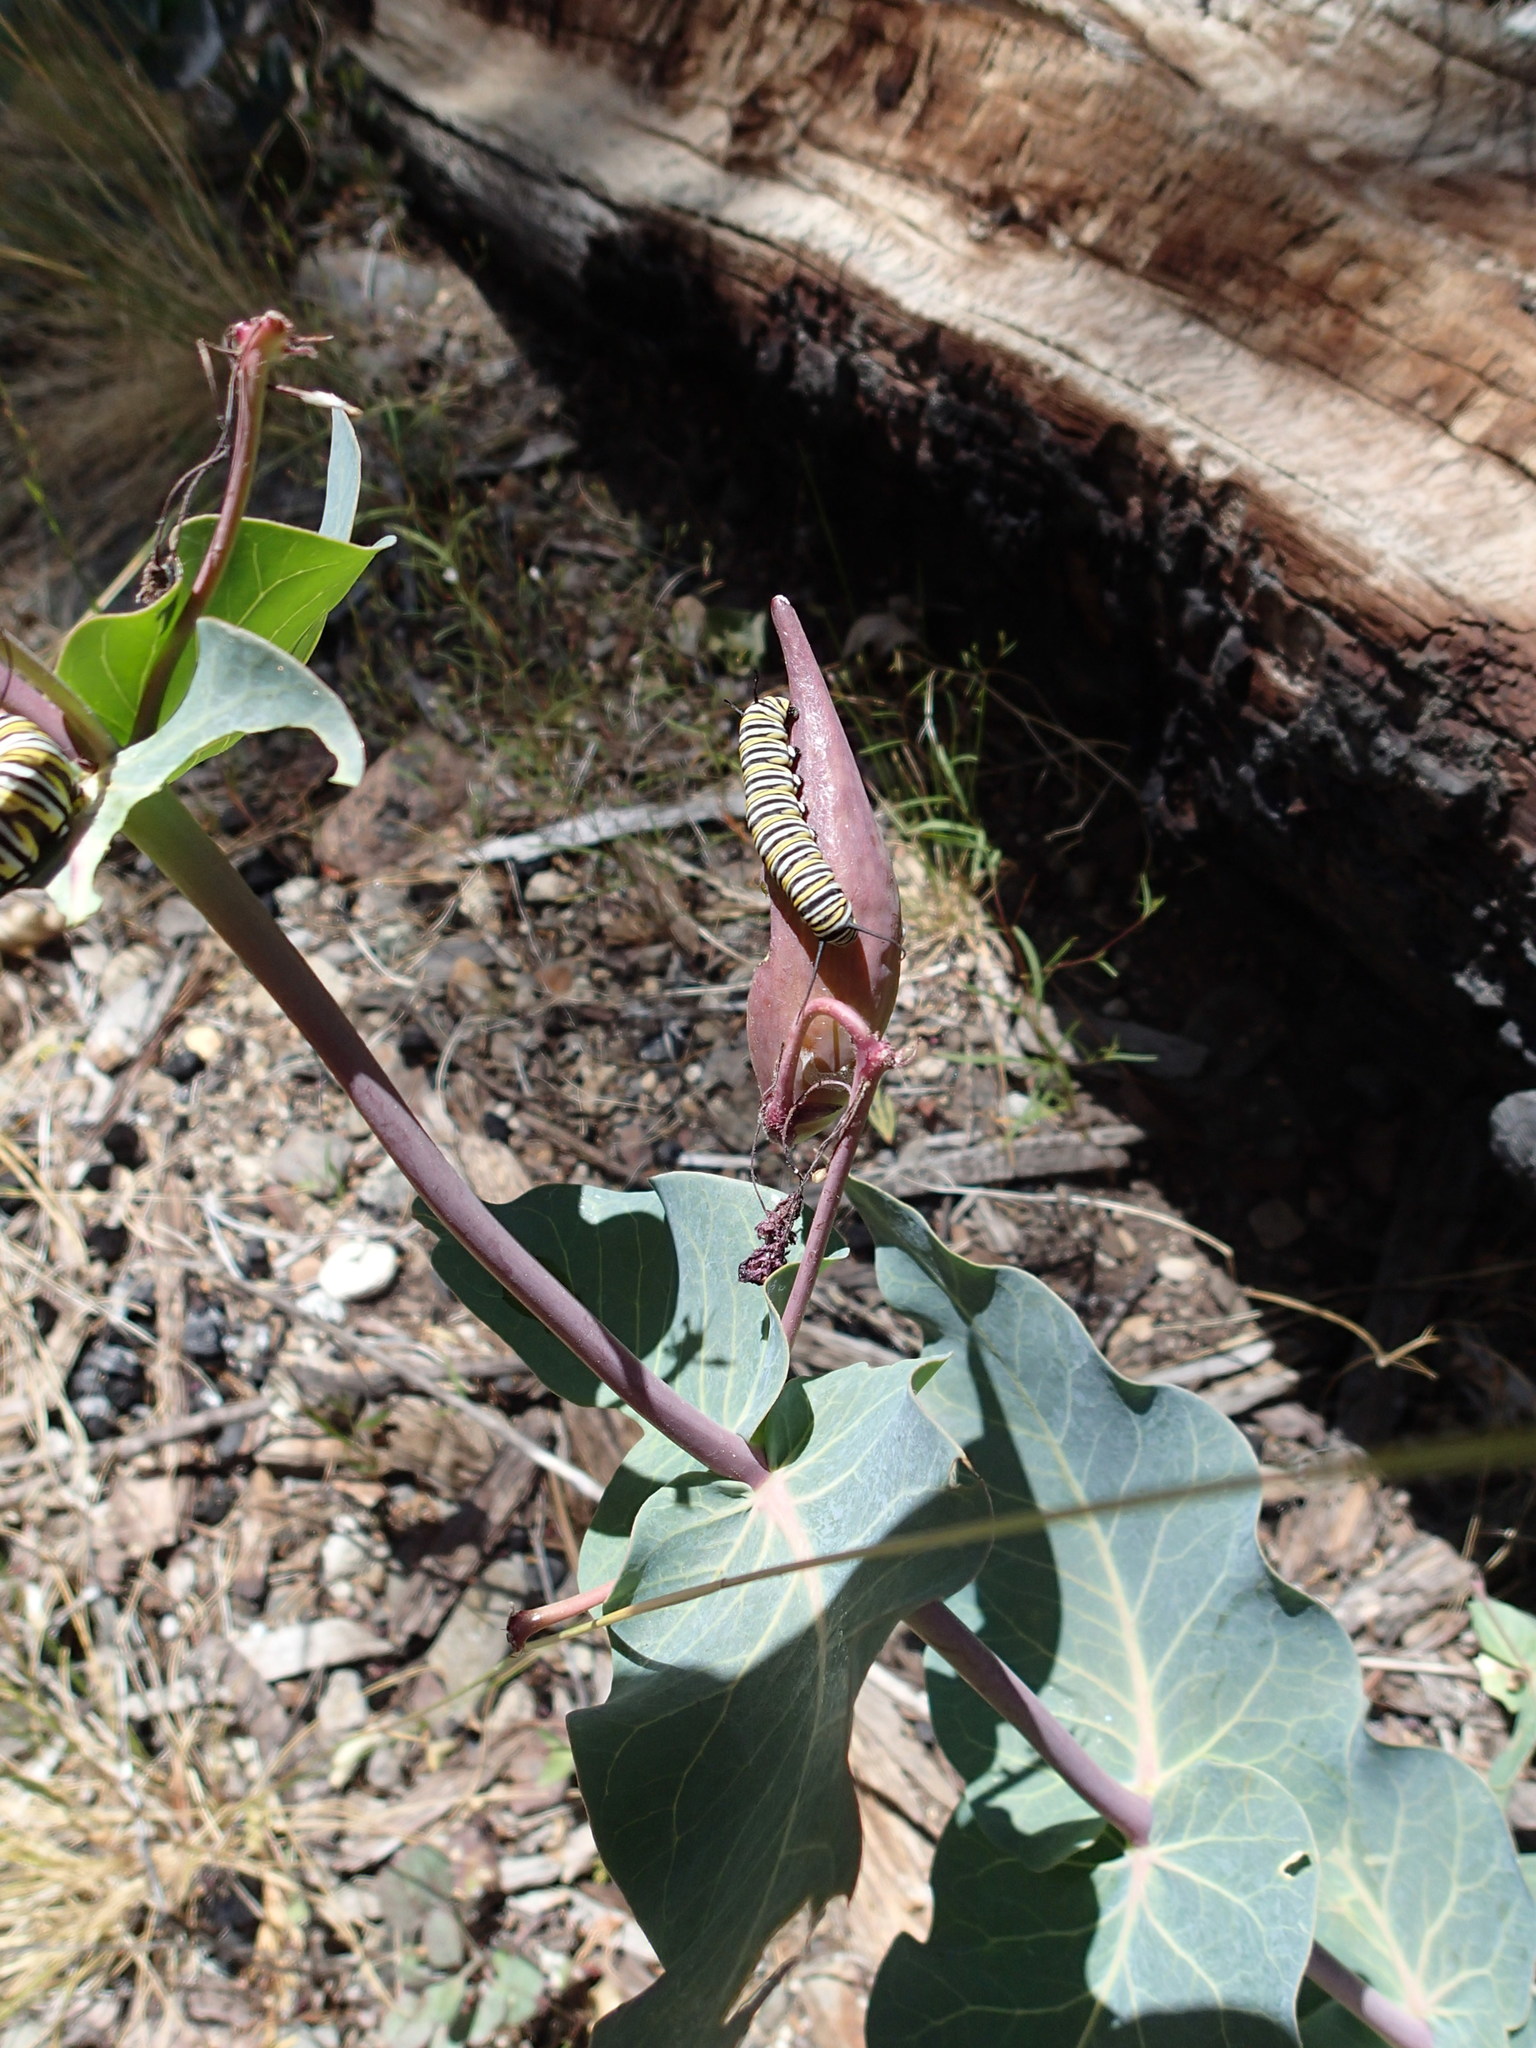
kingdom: Plantae
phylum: Tracheophyta
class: Magnoliopsida
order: Gentianales
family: Apocynaceae
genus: Asclepias
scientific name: Asclepias cordifolia
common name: Purple milkweed
